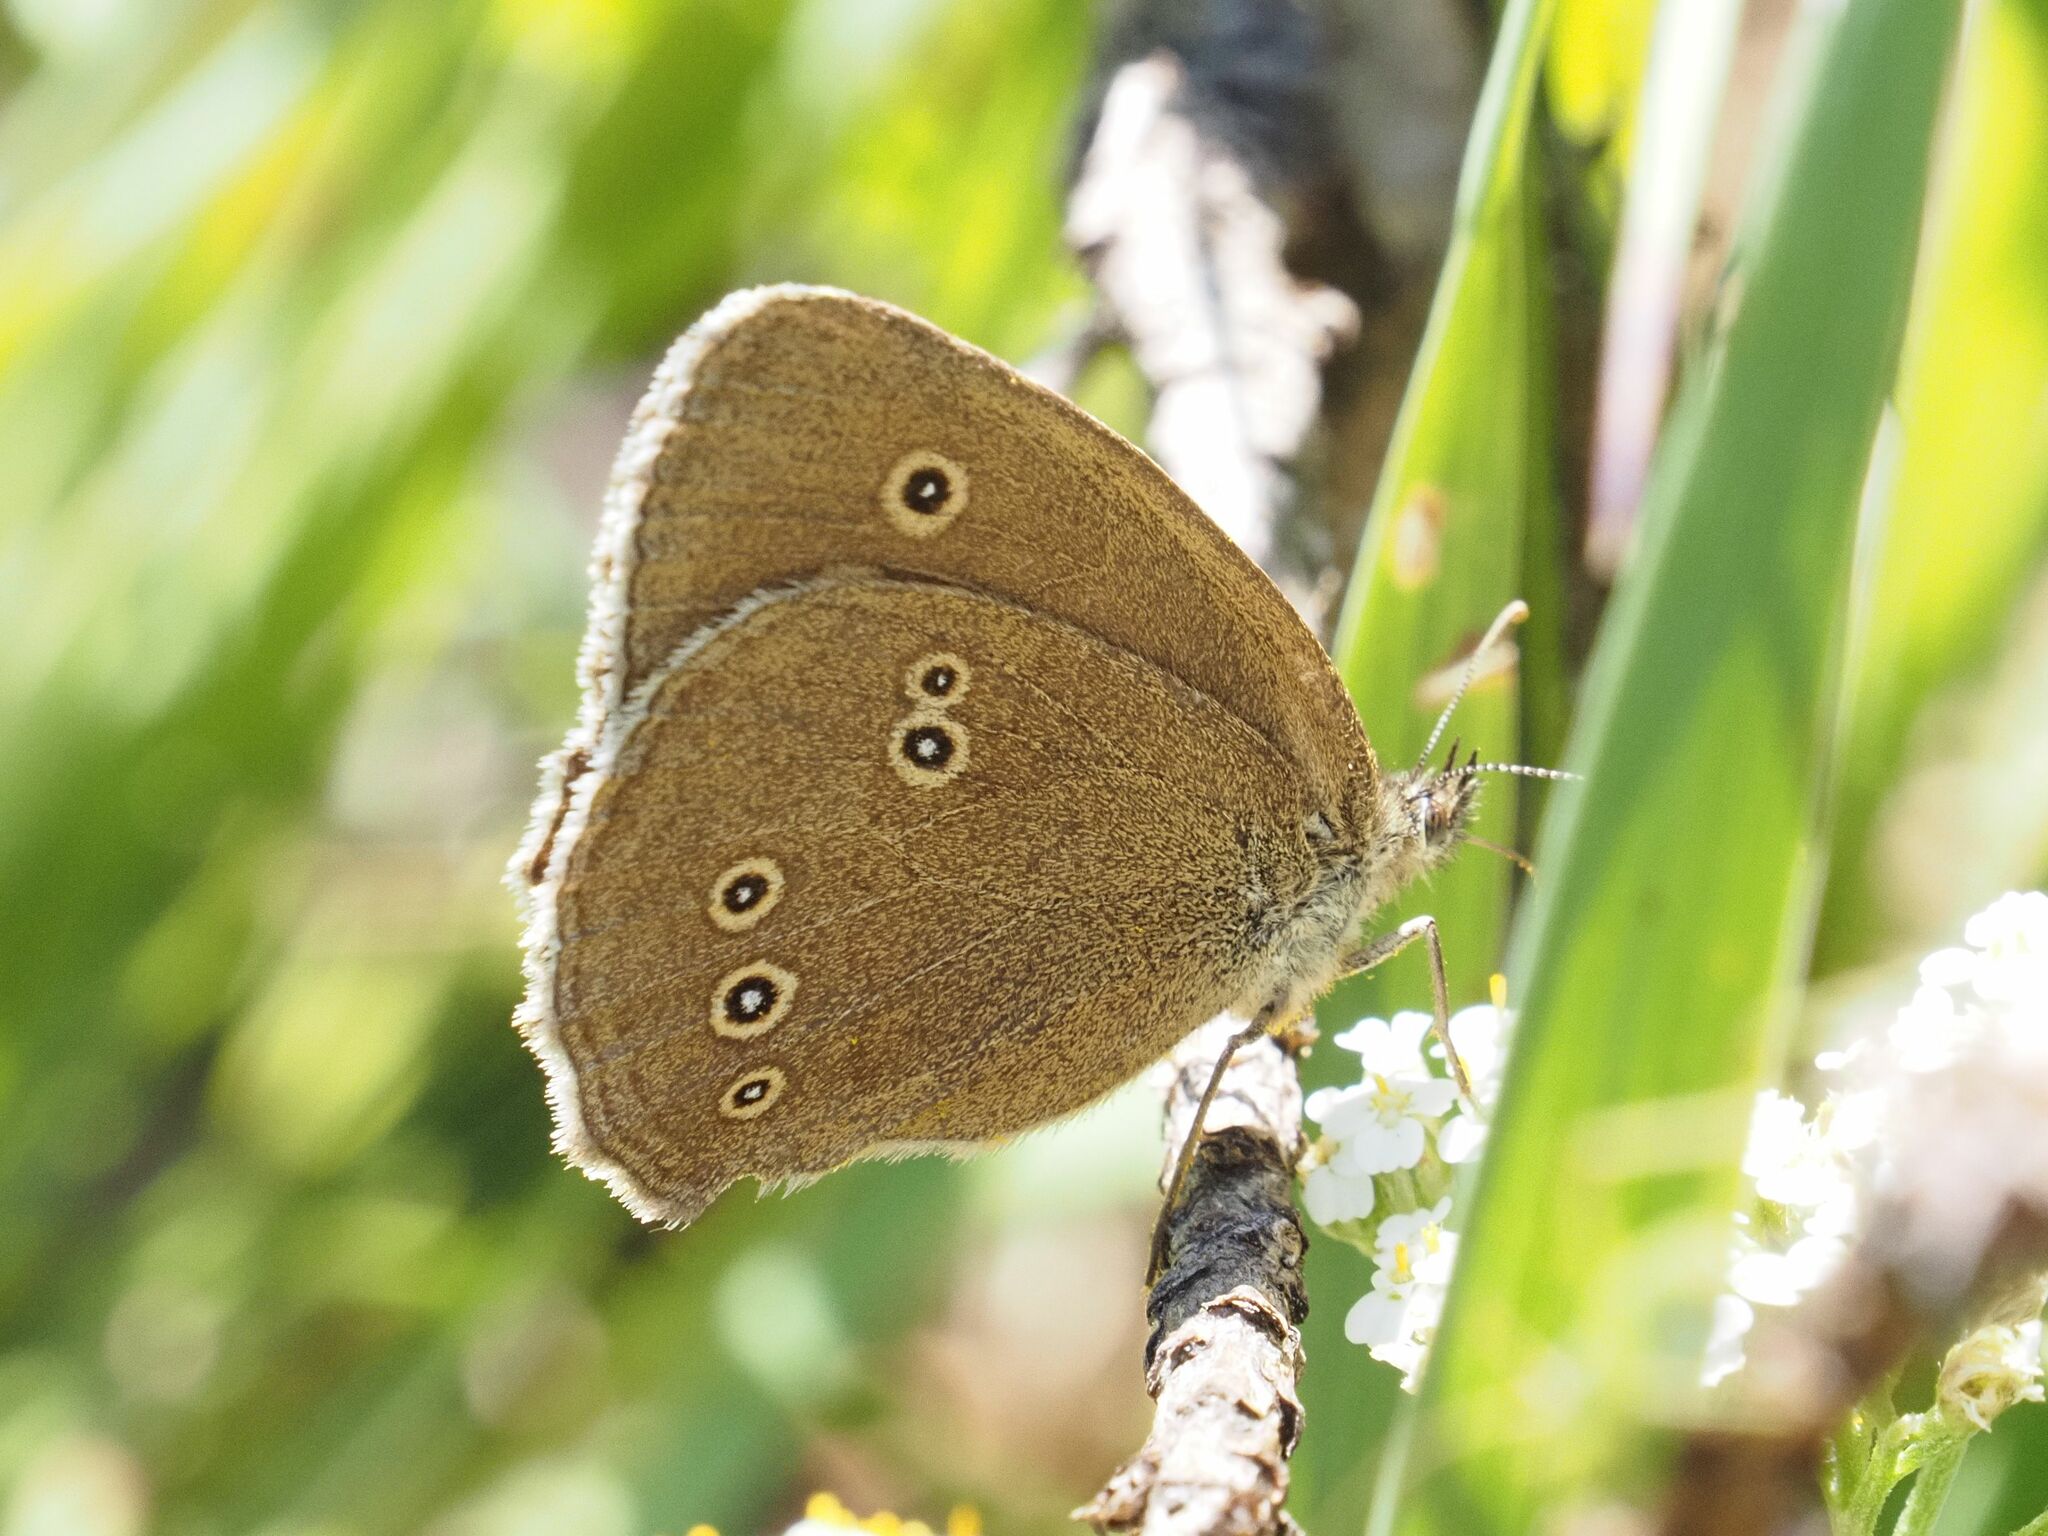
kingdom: Animalia
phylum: Arthropoda
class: Insecta
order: Lepidoptera
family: Nymphalidae
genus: Aphantopus
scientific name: Aphantopus hyperantus
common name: Ringlet
